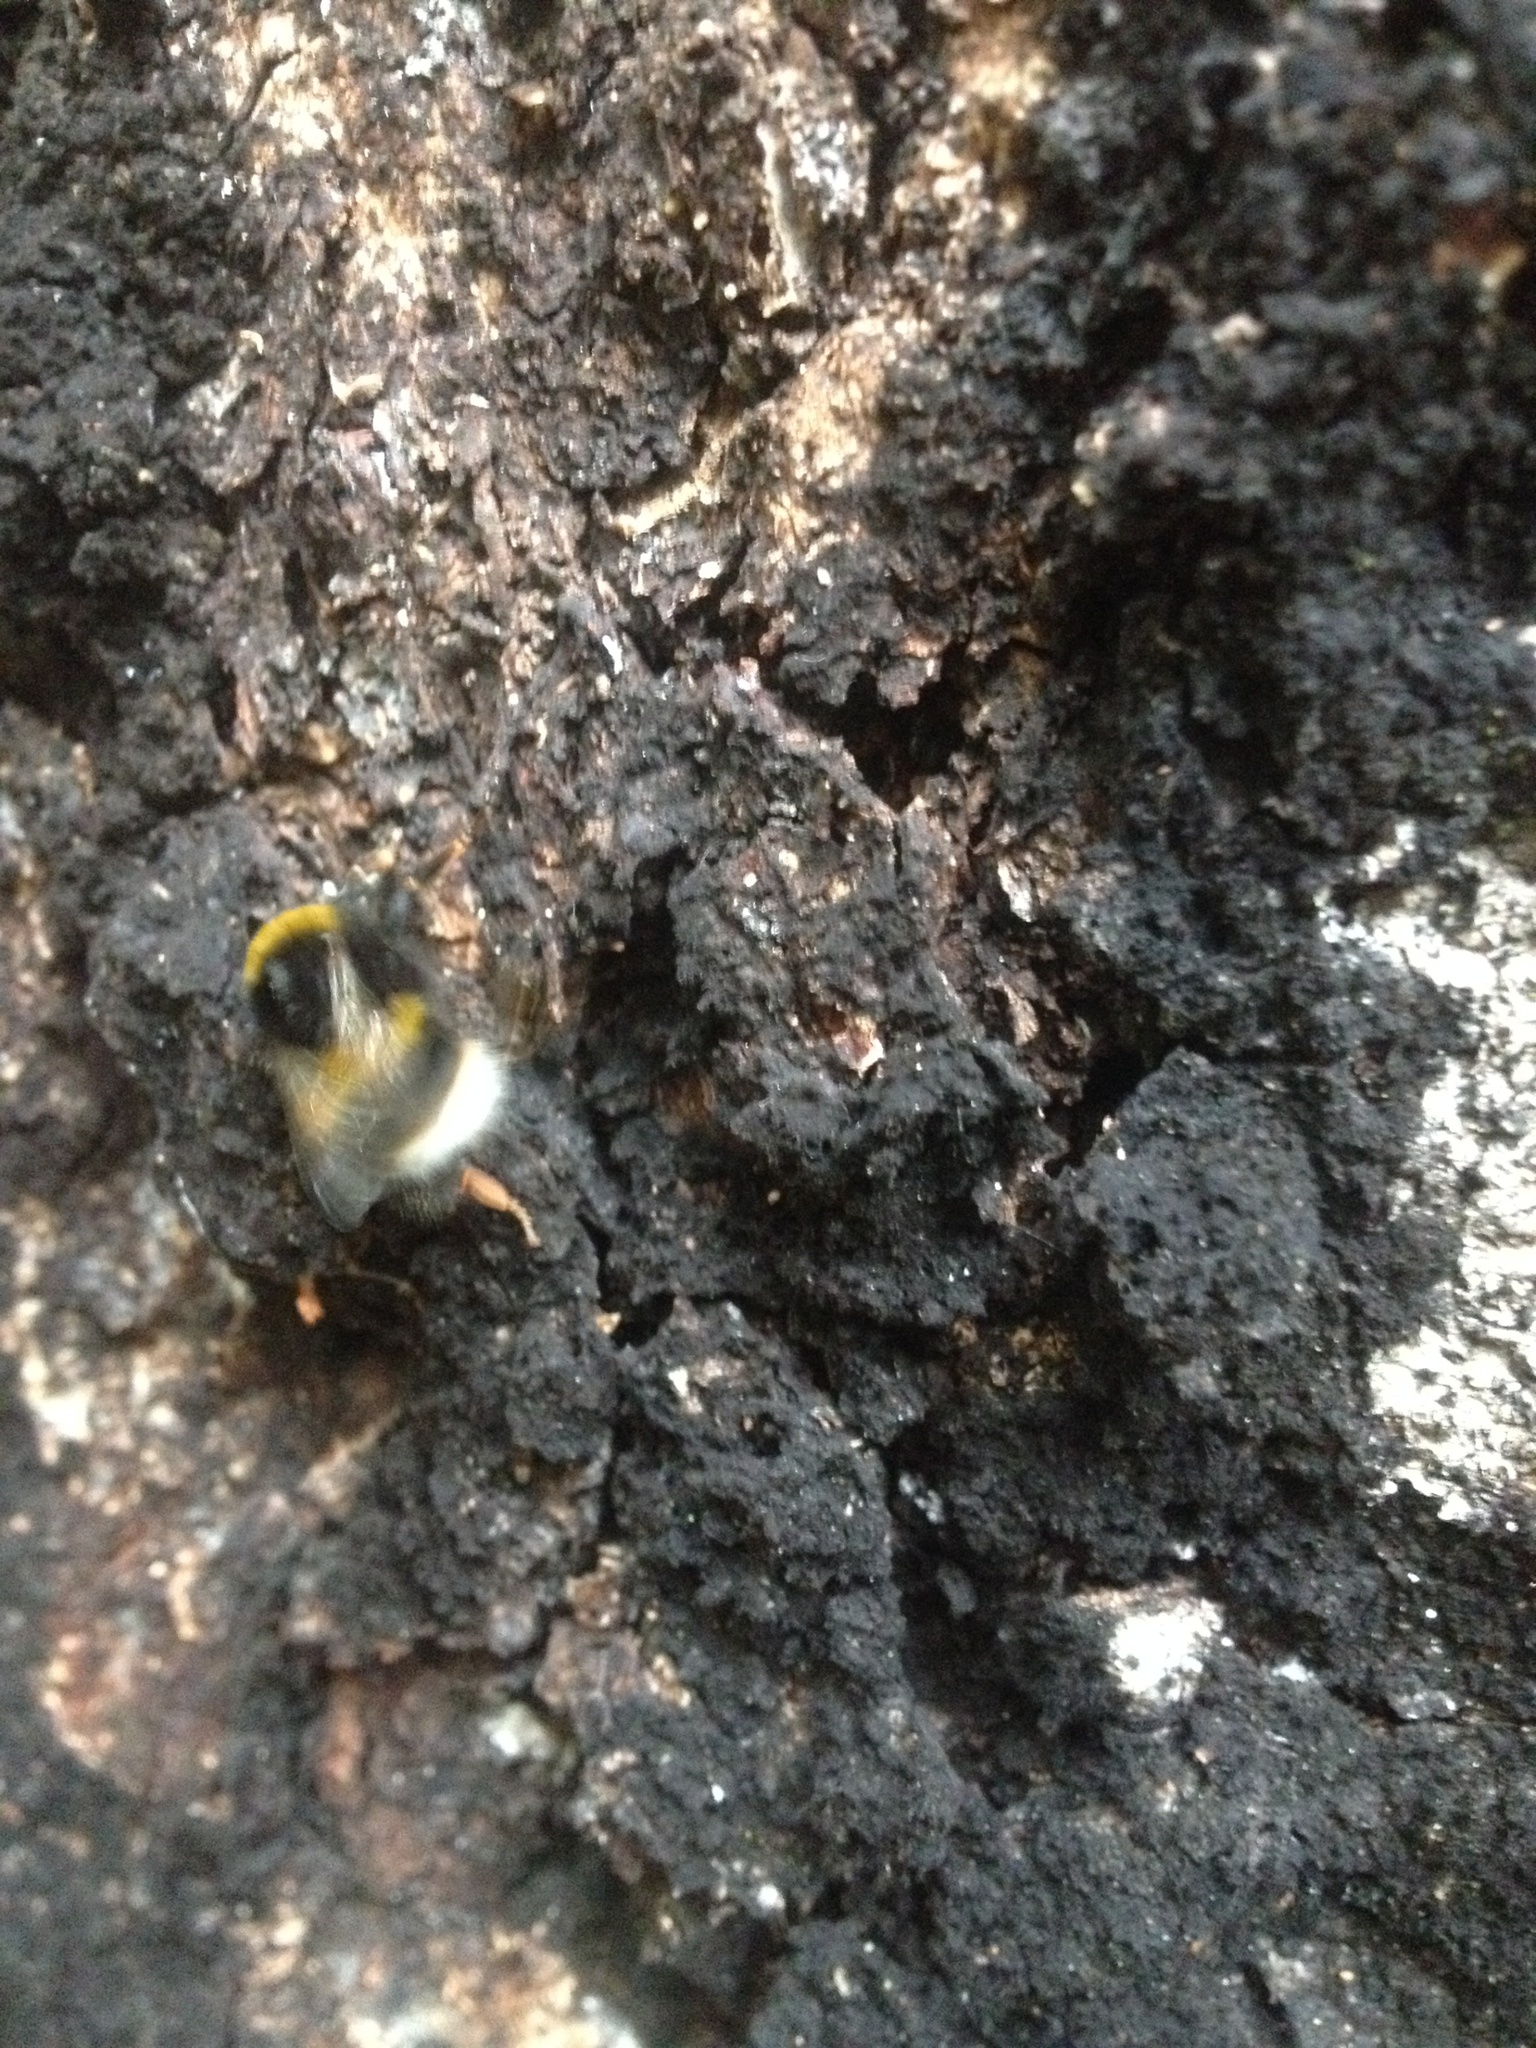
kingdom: Animalia
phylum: Arthropoda
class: Insecta
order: Hymenoptera
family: Apidae
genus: Bombus
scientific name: Bombus terrestris
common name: Buff-tailed bumblebee
